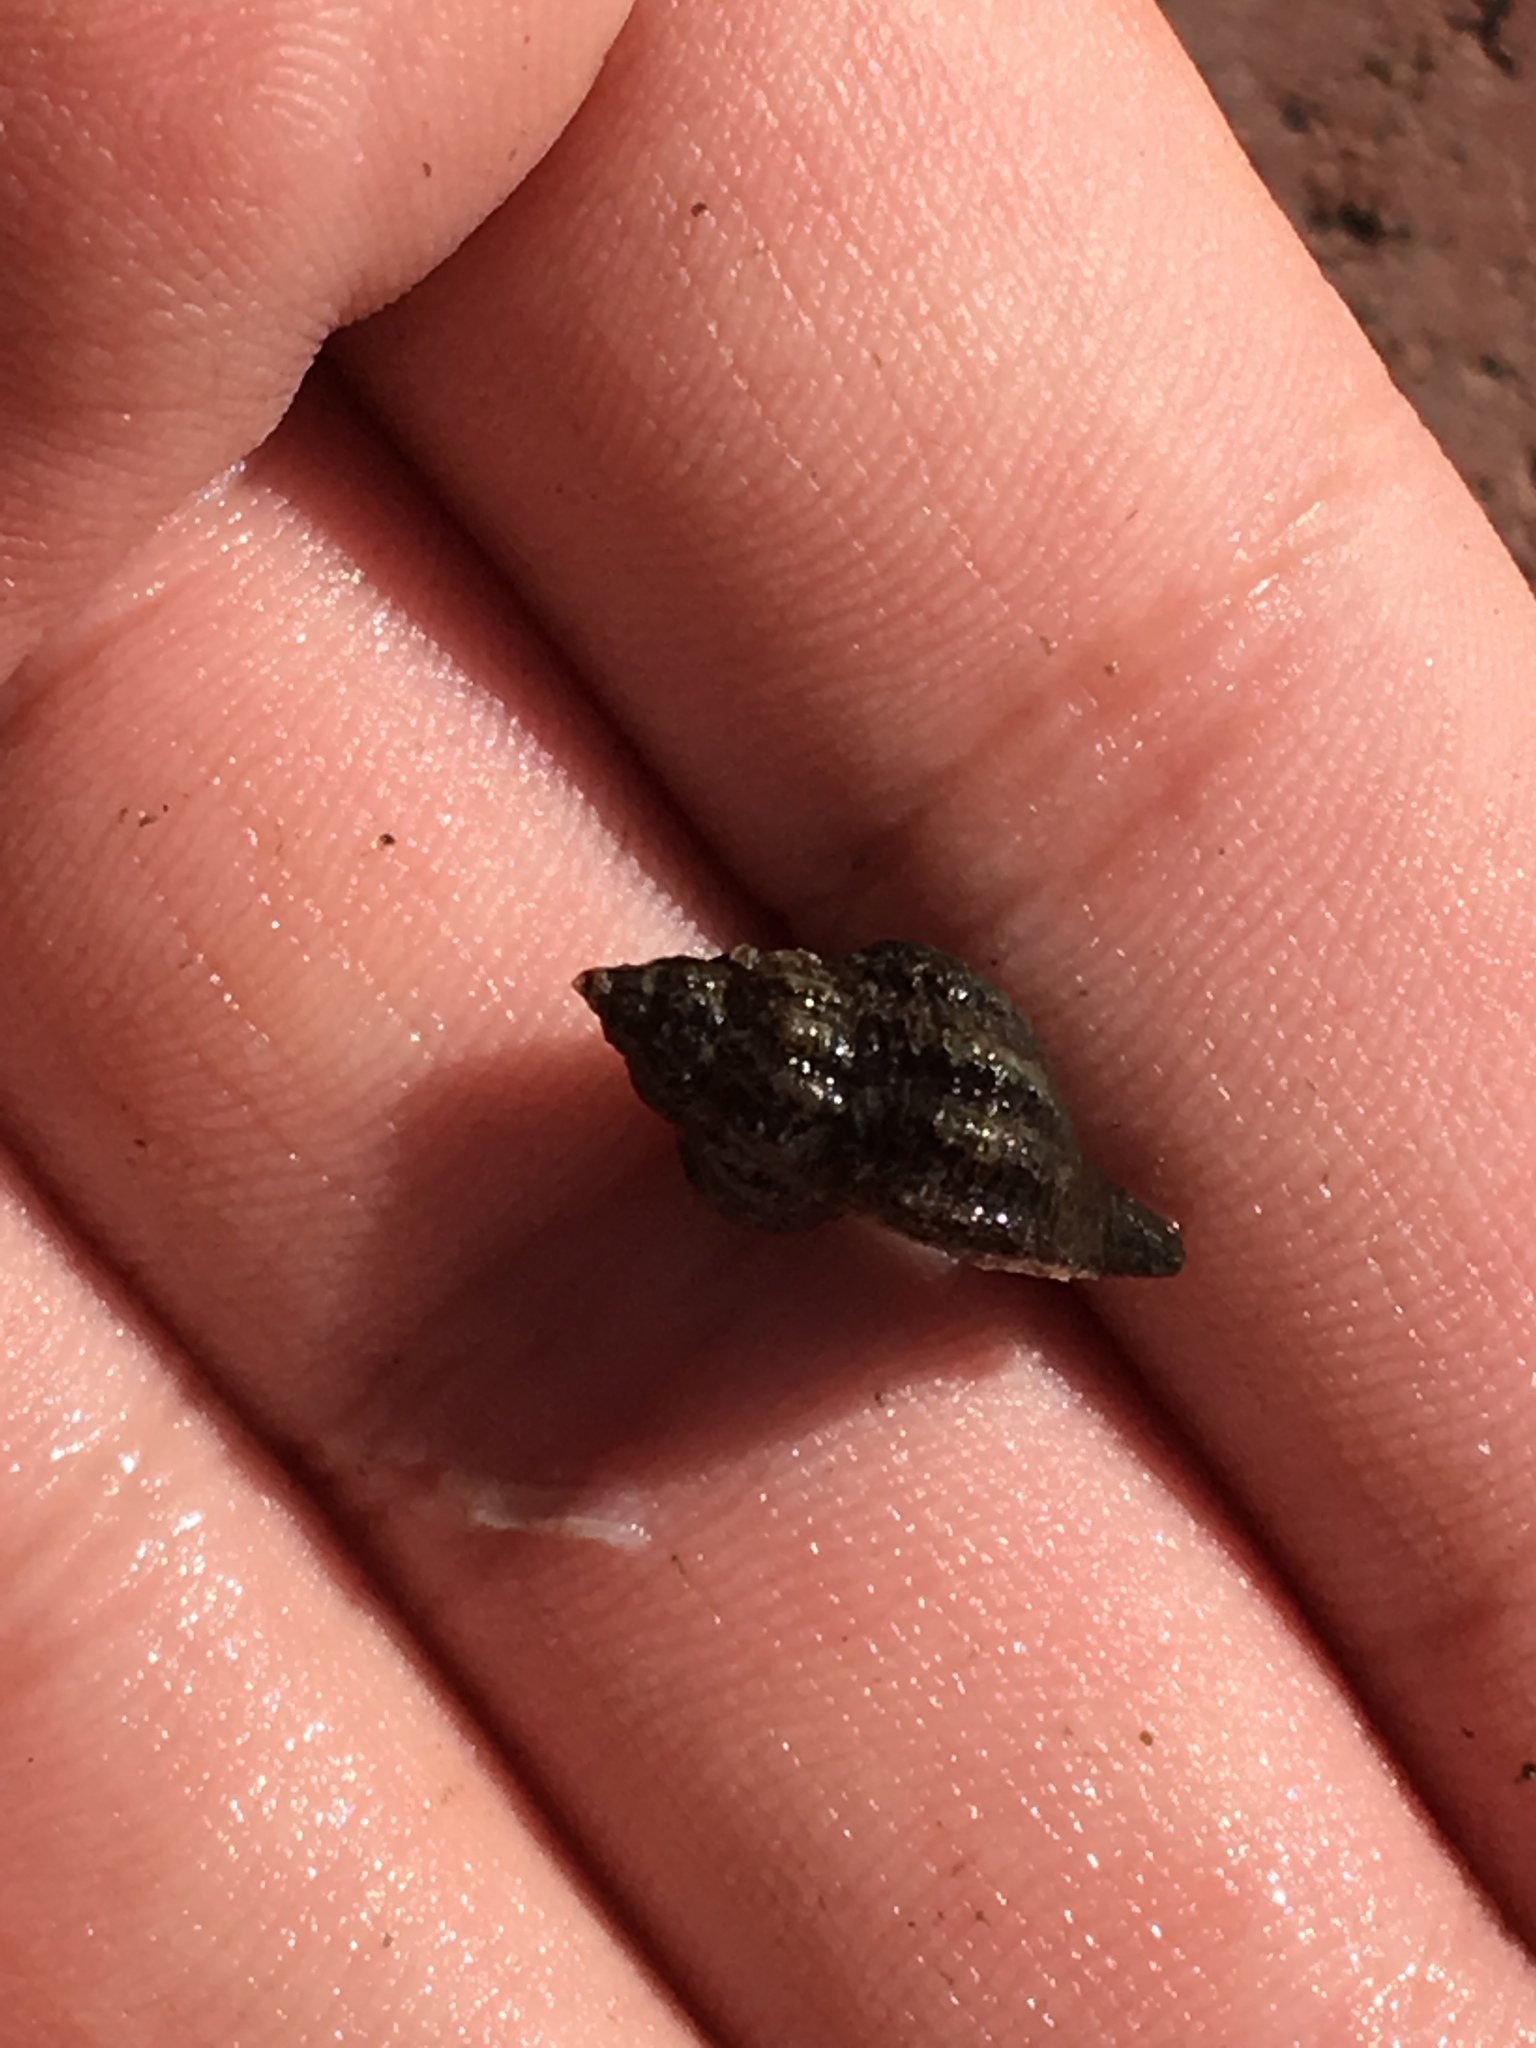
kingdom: Animalia
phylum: Mollusca
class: Gastropoda
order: Neogastropoda
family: Muricidae
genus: Urosalpinx
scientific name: Urosalpinx cinerea
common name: American sting winkle
